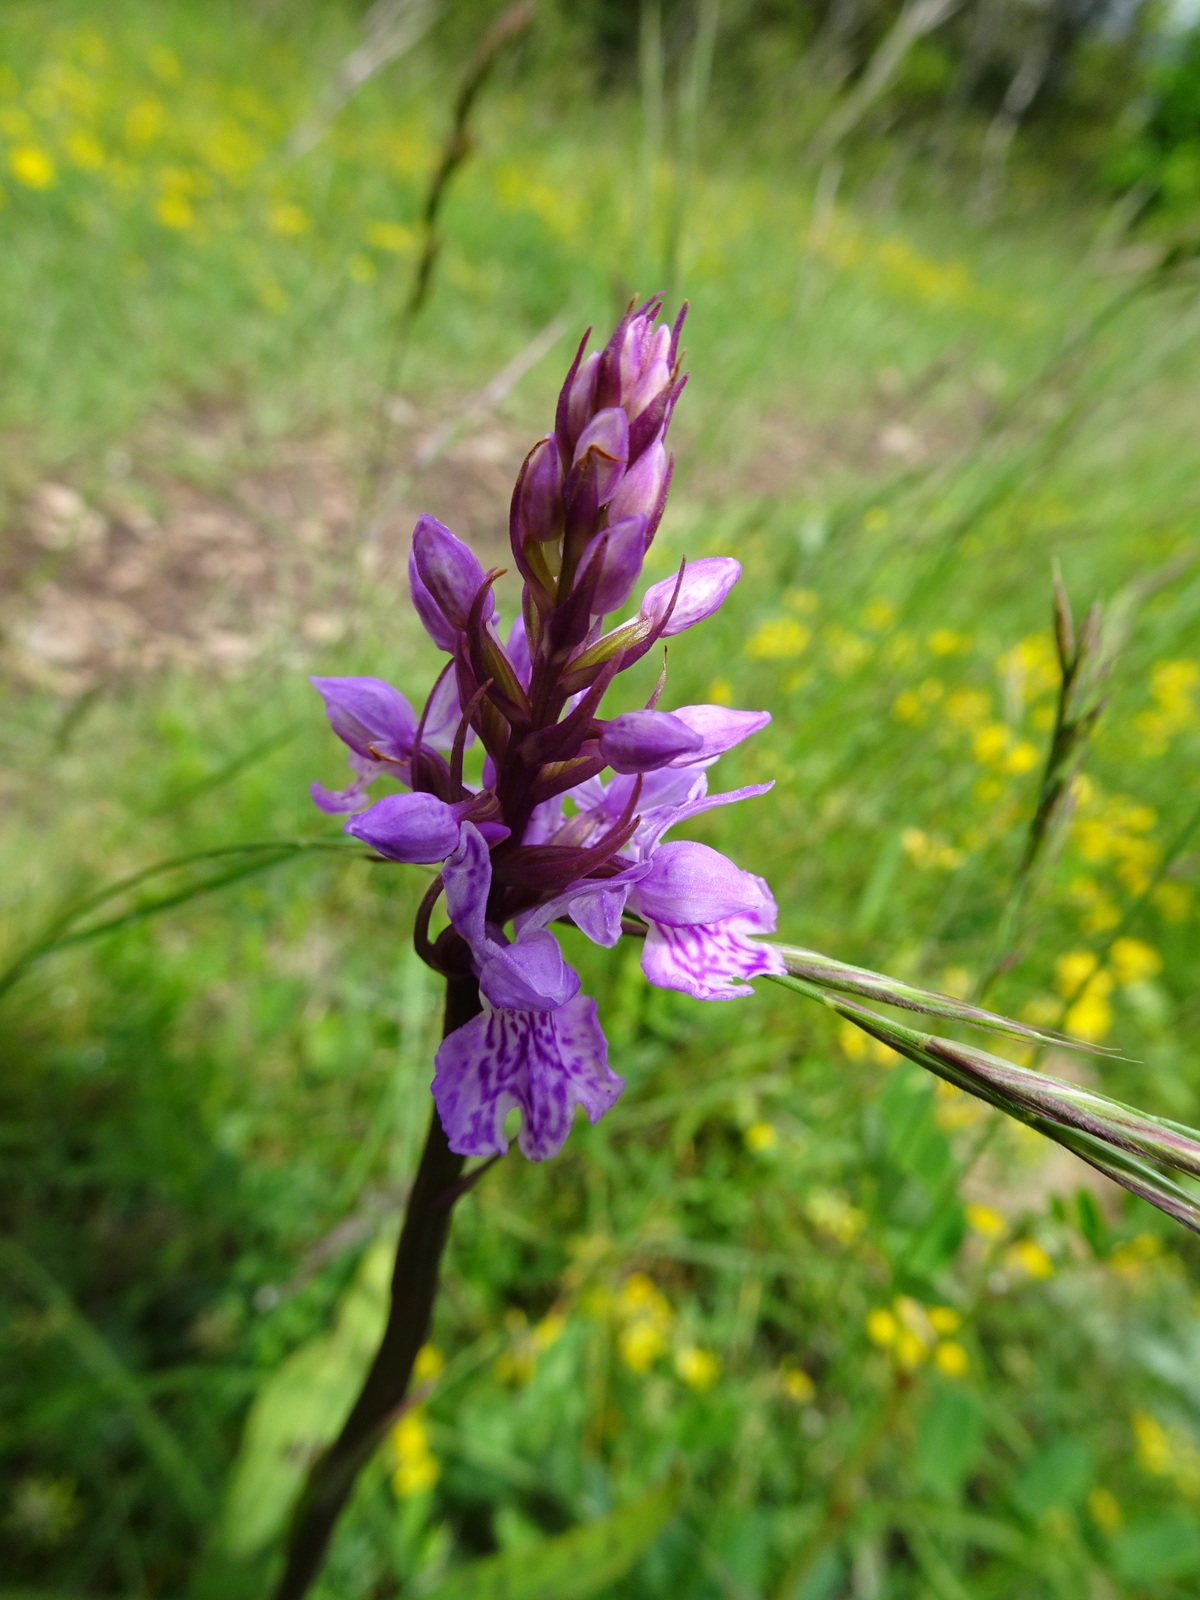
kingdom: Plantae
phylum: Tracheophyta
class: Liliopsida
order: Asparagales
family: Orchidaceae
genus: Dactylorhiza
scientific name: Dactylorhiza maculata
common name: Heath spotted-orchid
